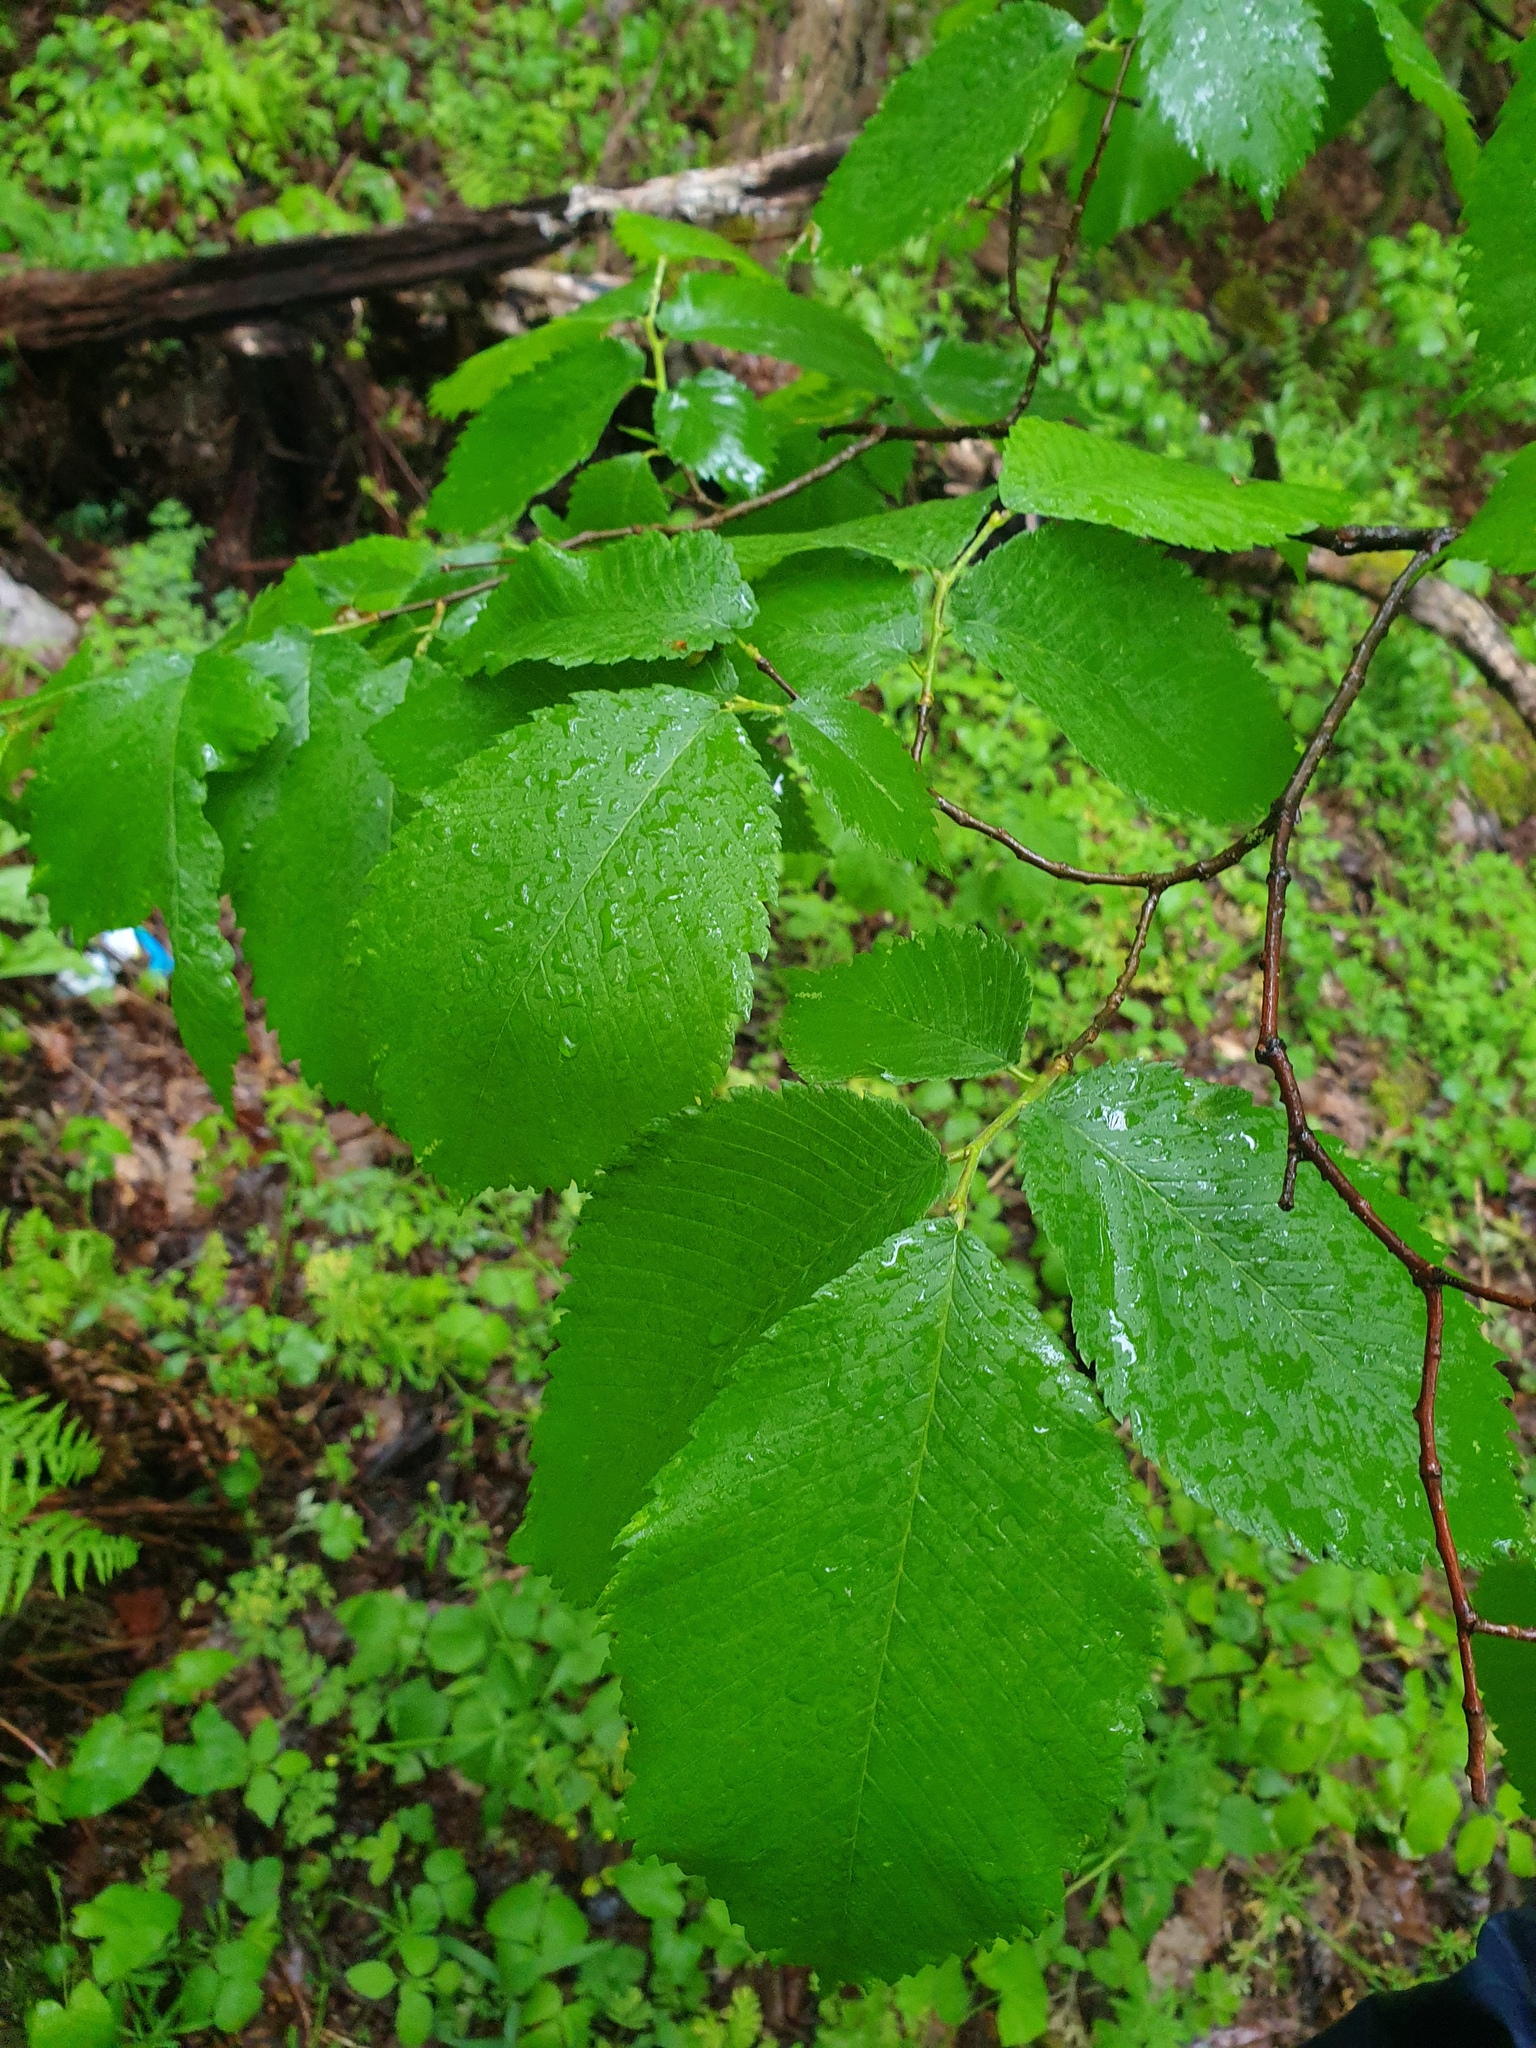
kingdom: Plantae
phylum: Tracheophyta
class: Magnoliopsida
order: Rosales
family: Ulmaceae
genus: Ulmus
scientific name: Ulmus thomasii
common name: Rock elm
